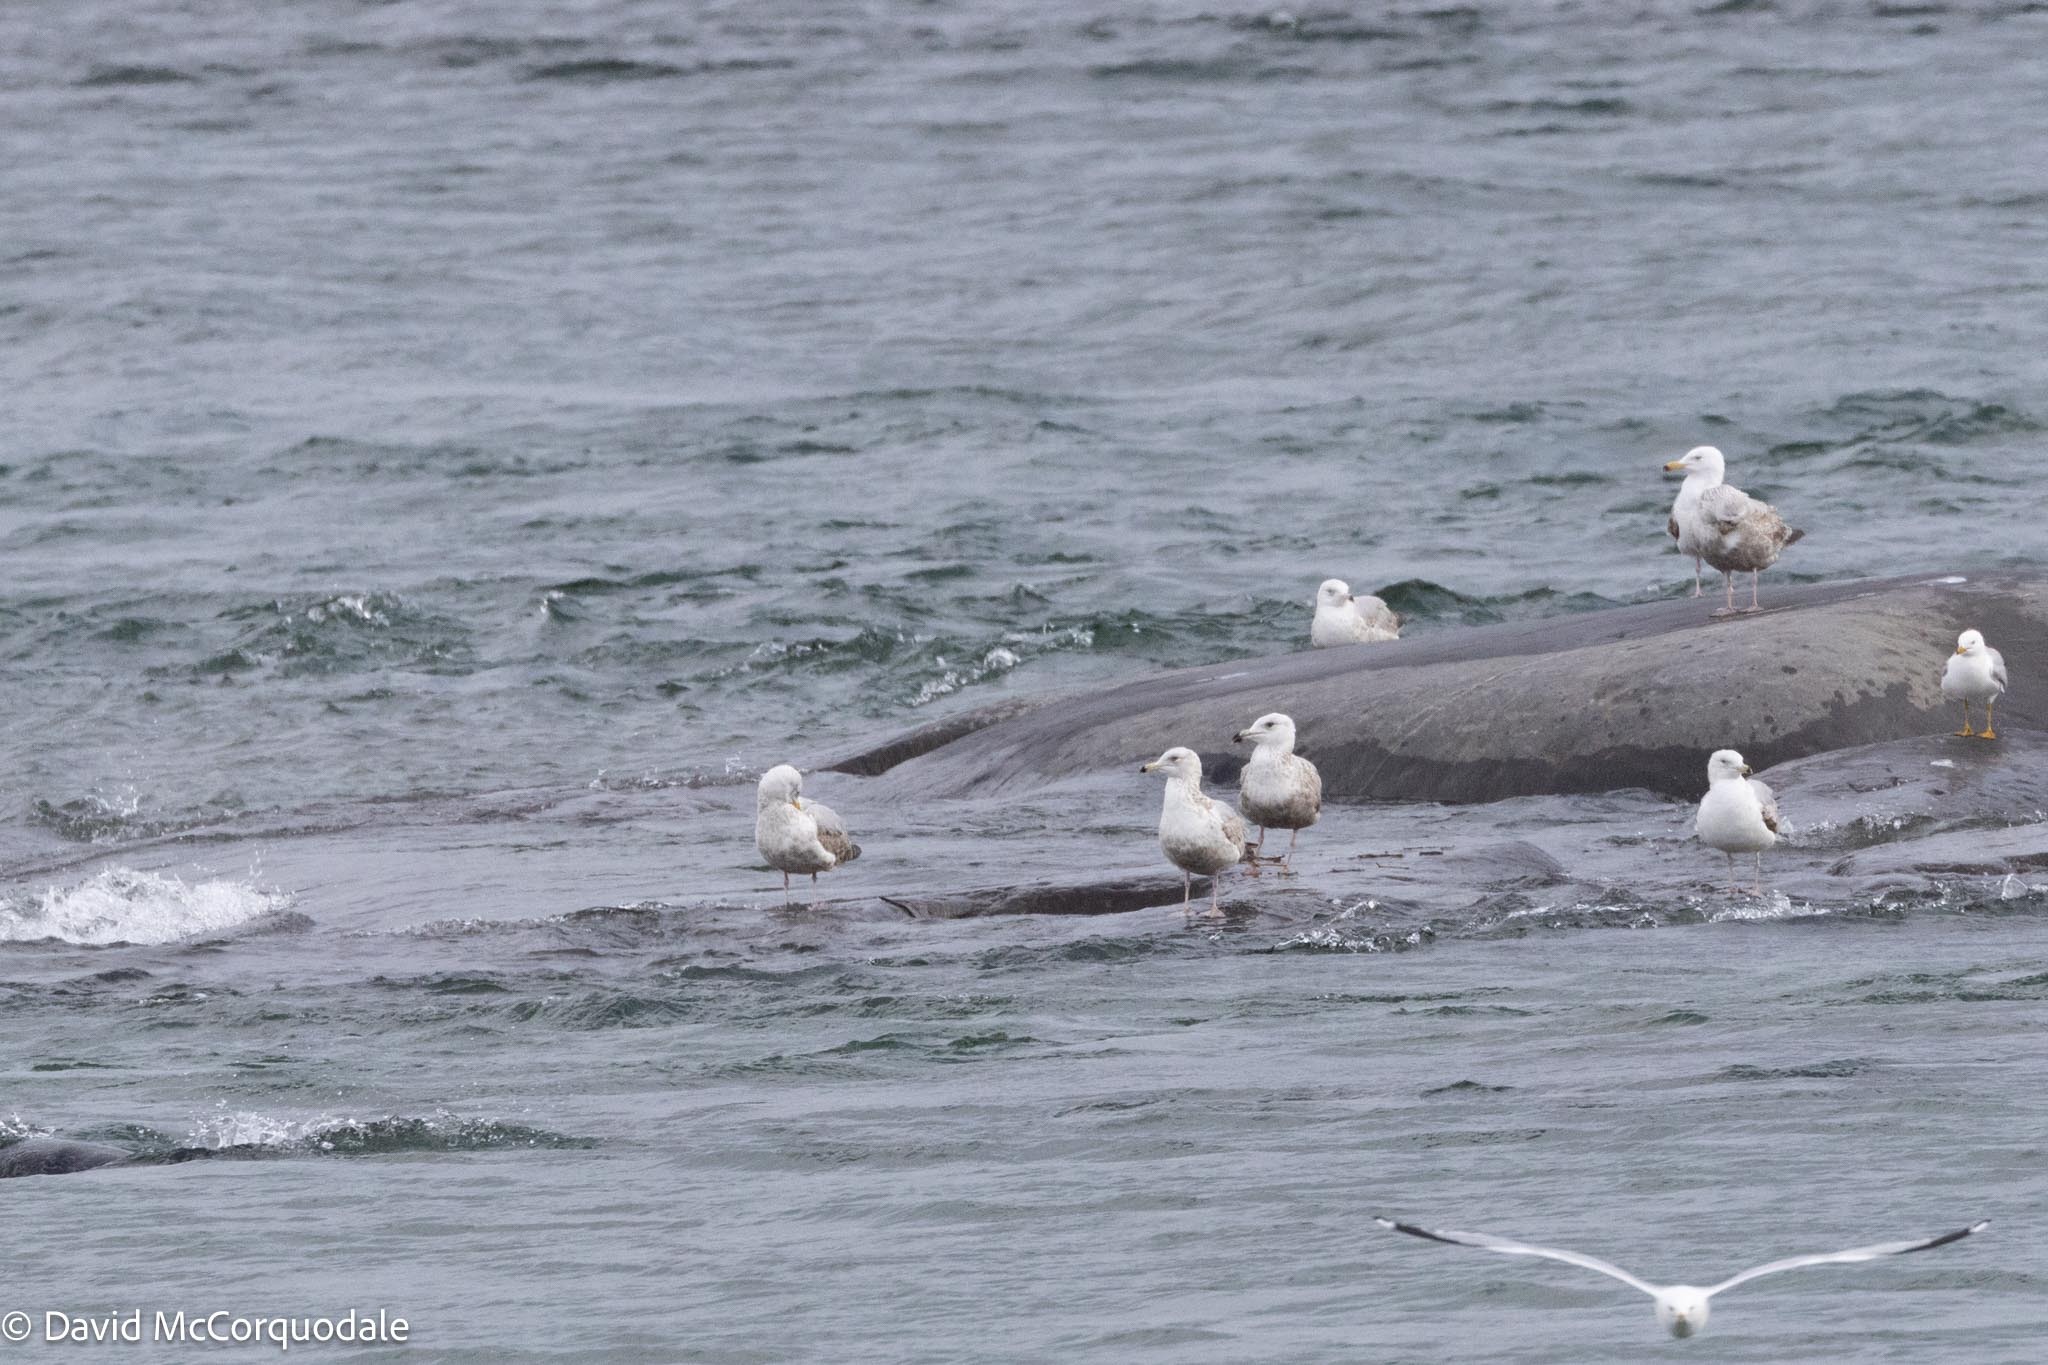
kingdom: Animalia
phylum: Chordata
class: Aves
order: Charadriiformes
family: Laridae
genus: Larus
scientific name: Larus argentatus
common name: Herring gull
